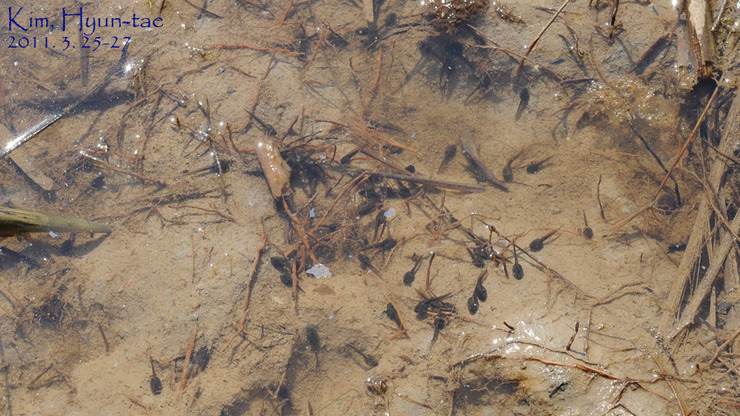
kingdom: Animalia
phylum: Chordata
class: Amphibia
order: Anura
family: Ranidae
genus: Rana
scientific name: Rana uenoi
